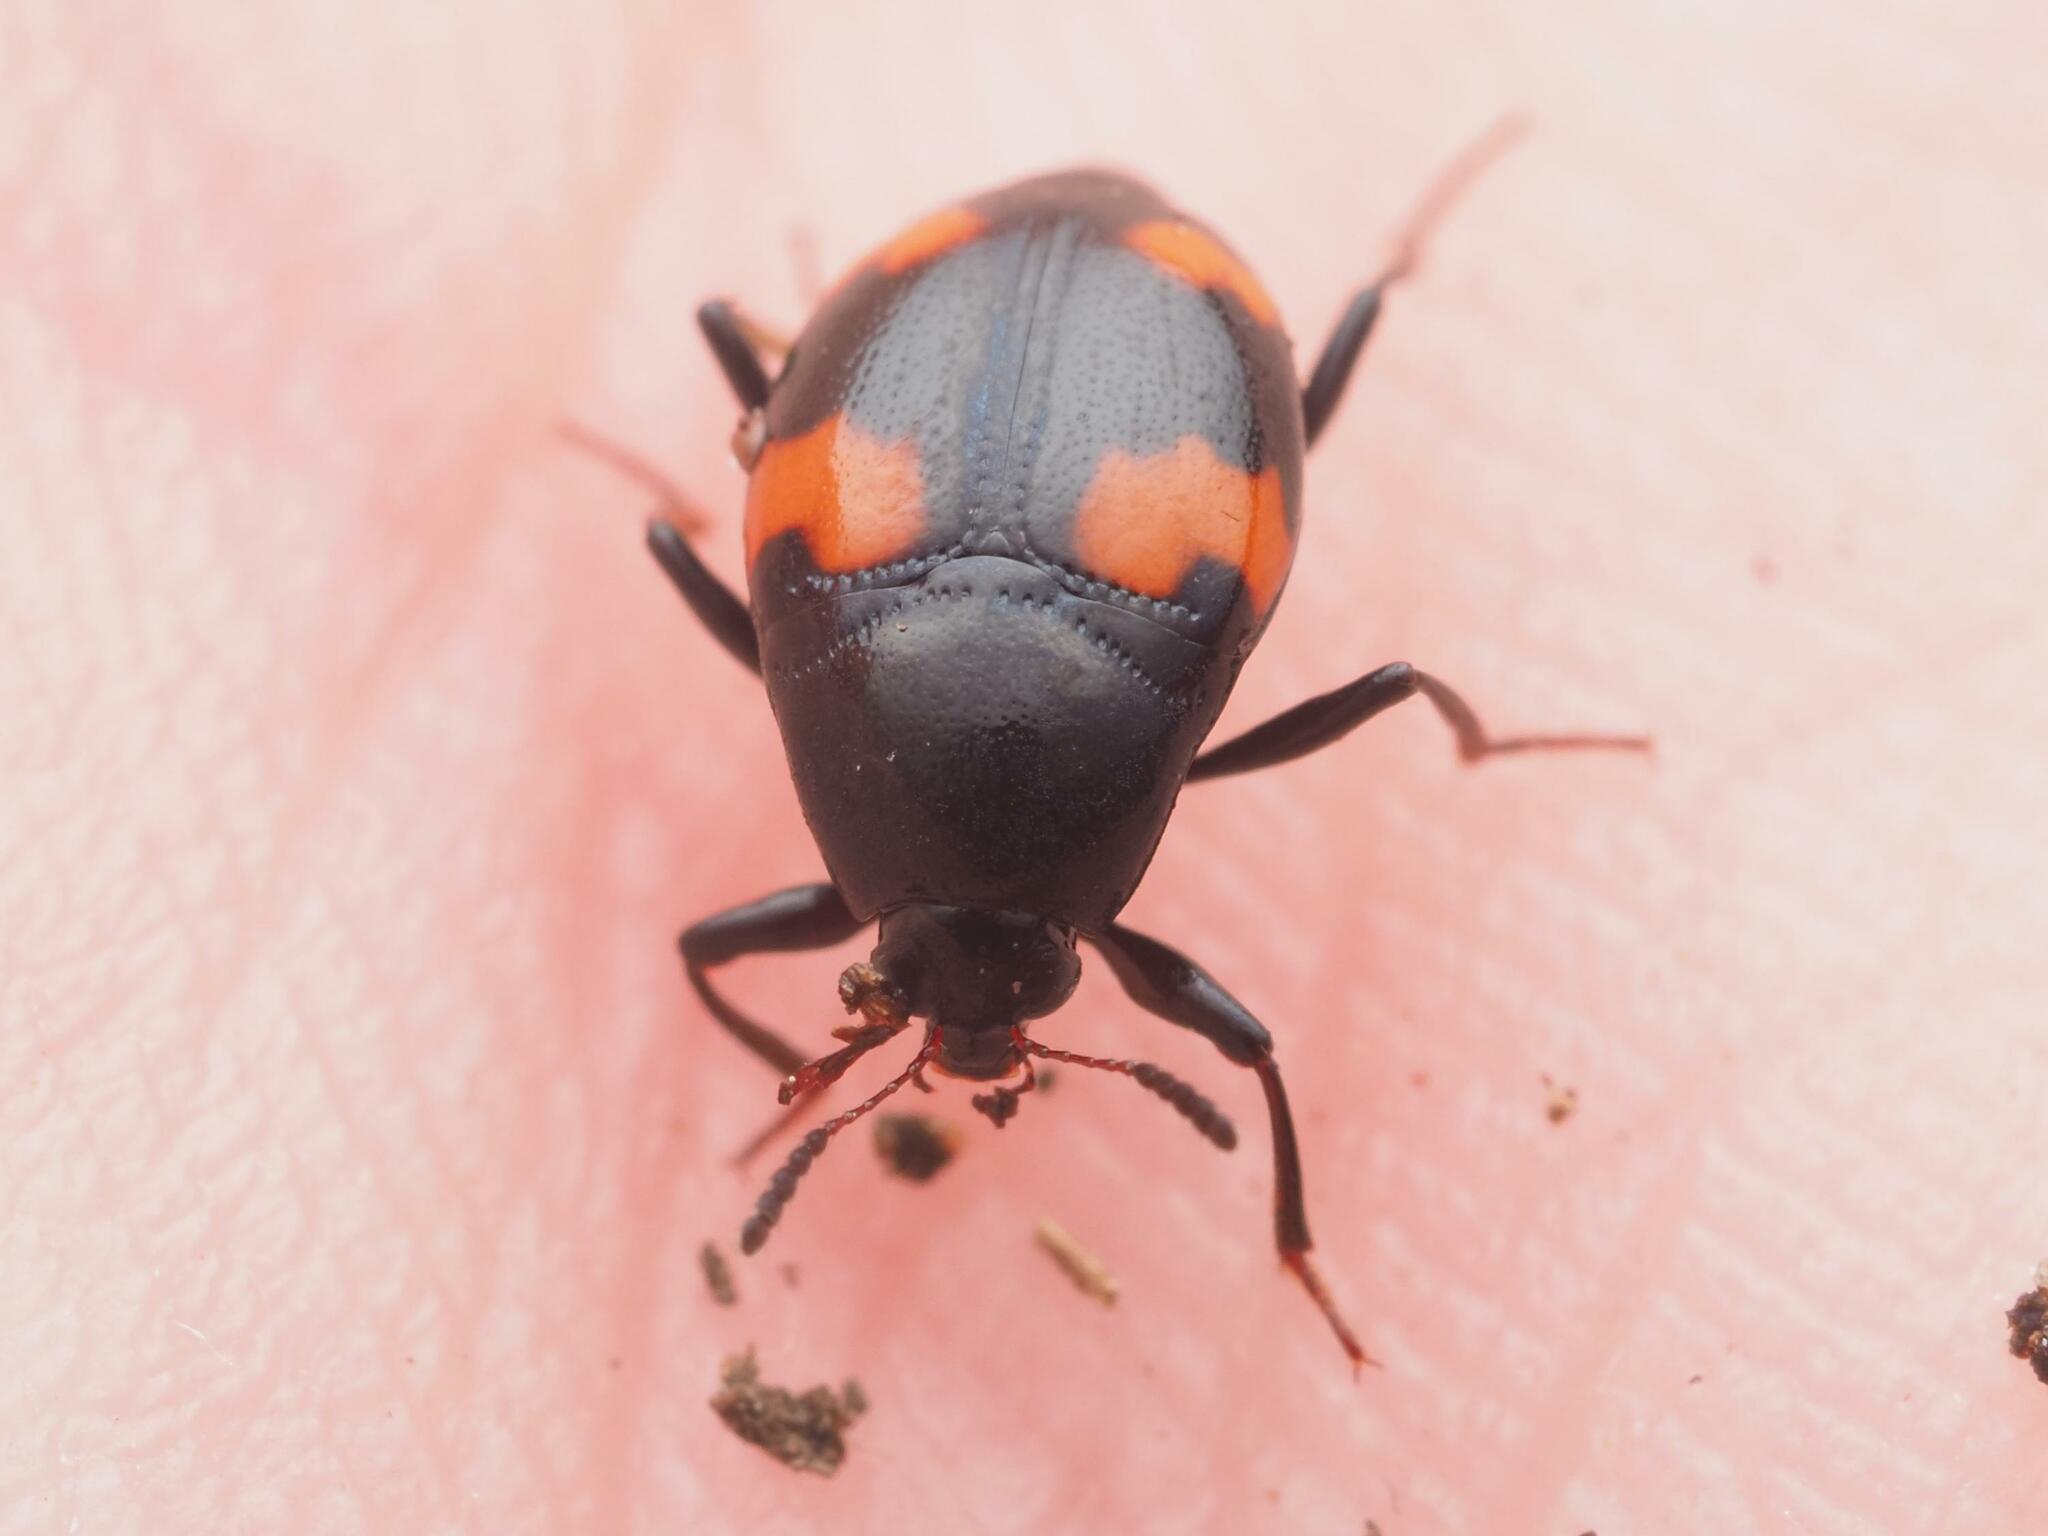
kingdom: Animalia
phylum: Arthropoda
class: Insecta
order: Coleoptera
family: Staphylinidae
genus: Scaphidium
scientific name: Scaphidium quadrimaculatum
